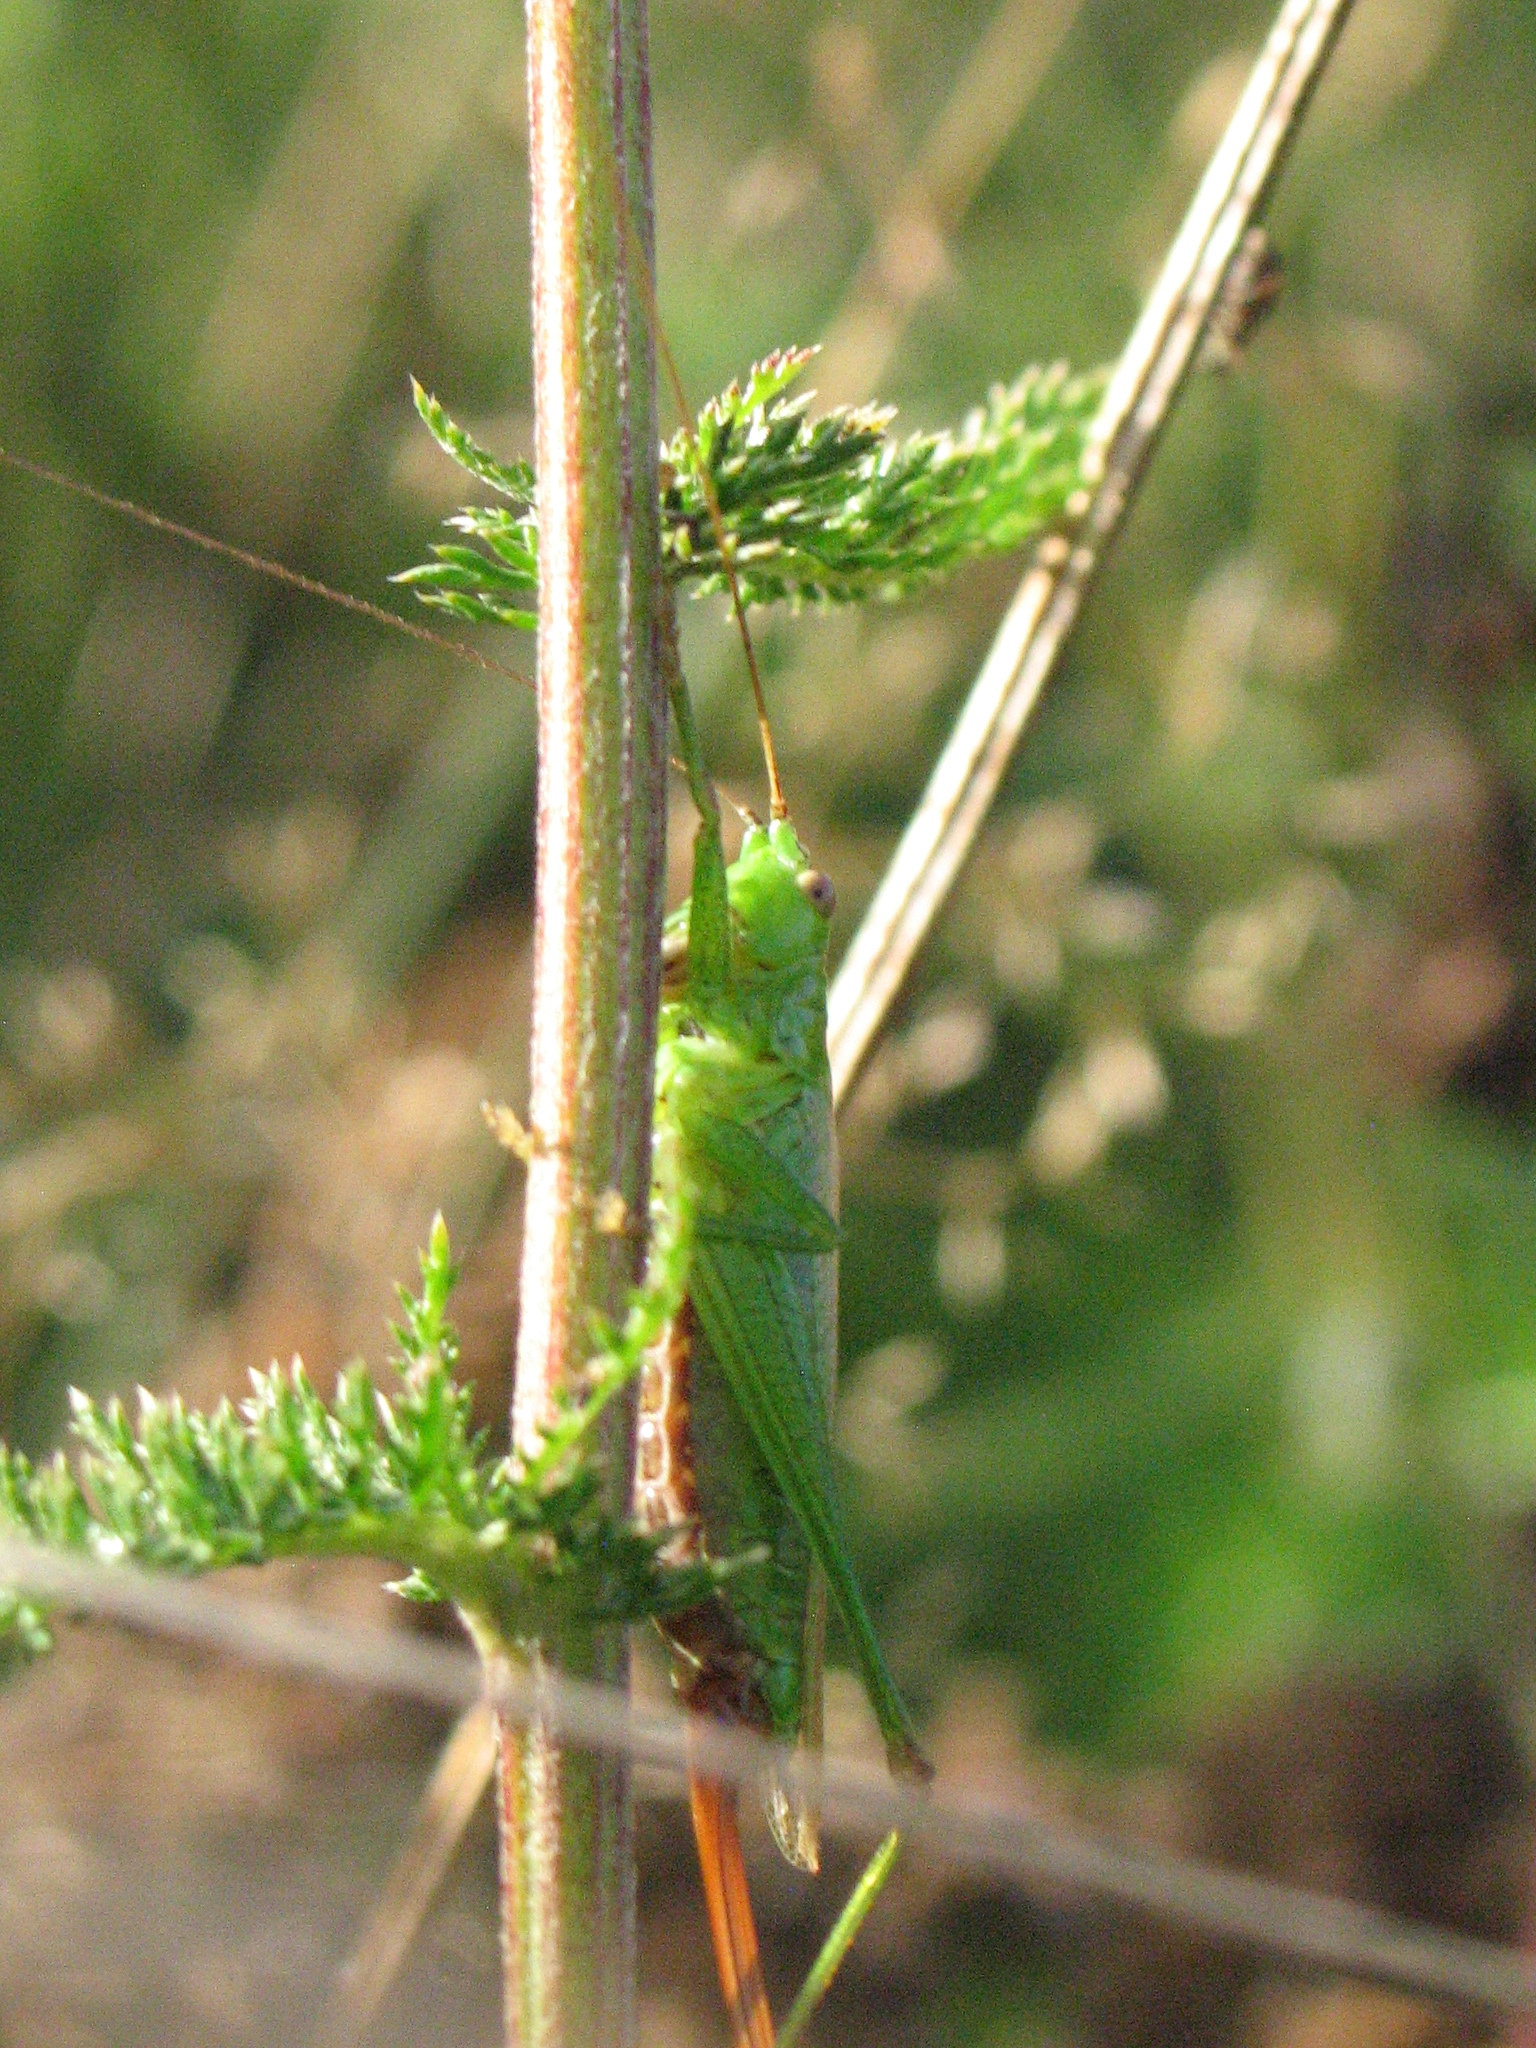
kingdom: Animalia
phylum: Arthropoda
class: Insecta
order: Orthoptera
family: Tettigoniidae
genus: Conocephalus
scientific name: Conocephalus fuscus
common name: Long-winged conehead
